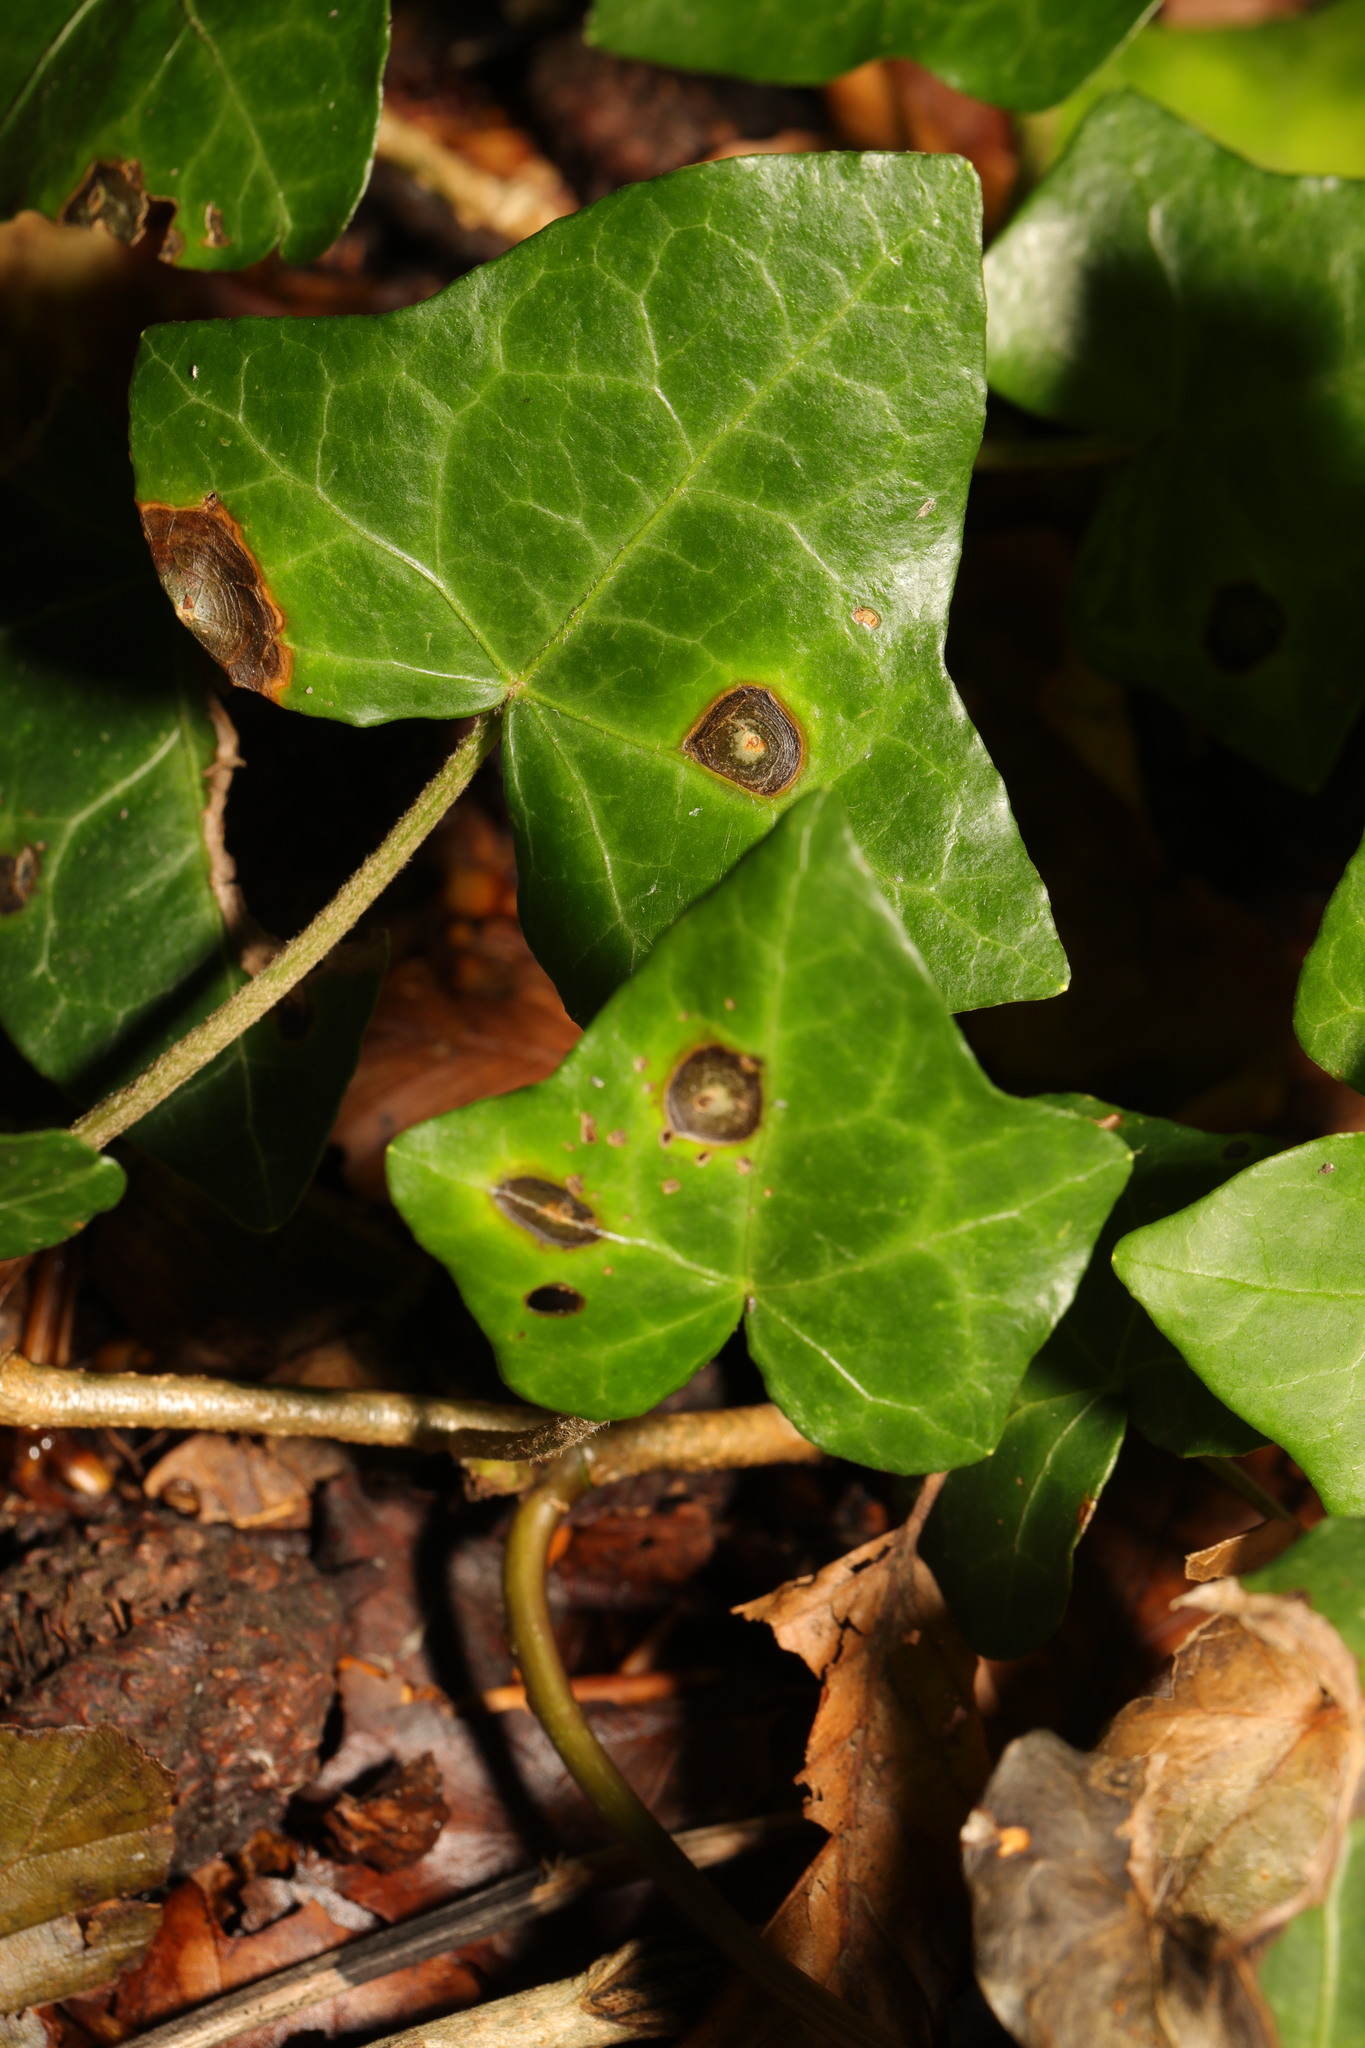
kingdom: Fungi
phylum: Ascomycota
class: Dothideomycetes
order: Pleosporales
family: Didymellaceae
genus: Boeremia
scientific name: Boeremia hedericola
